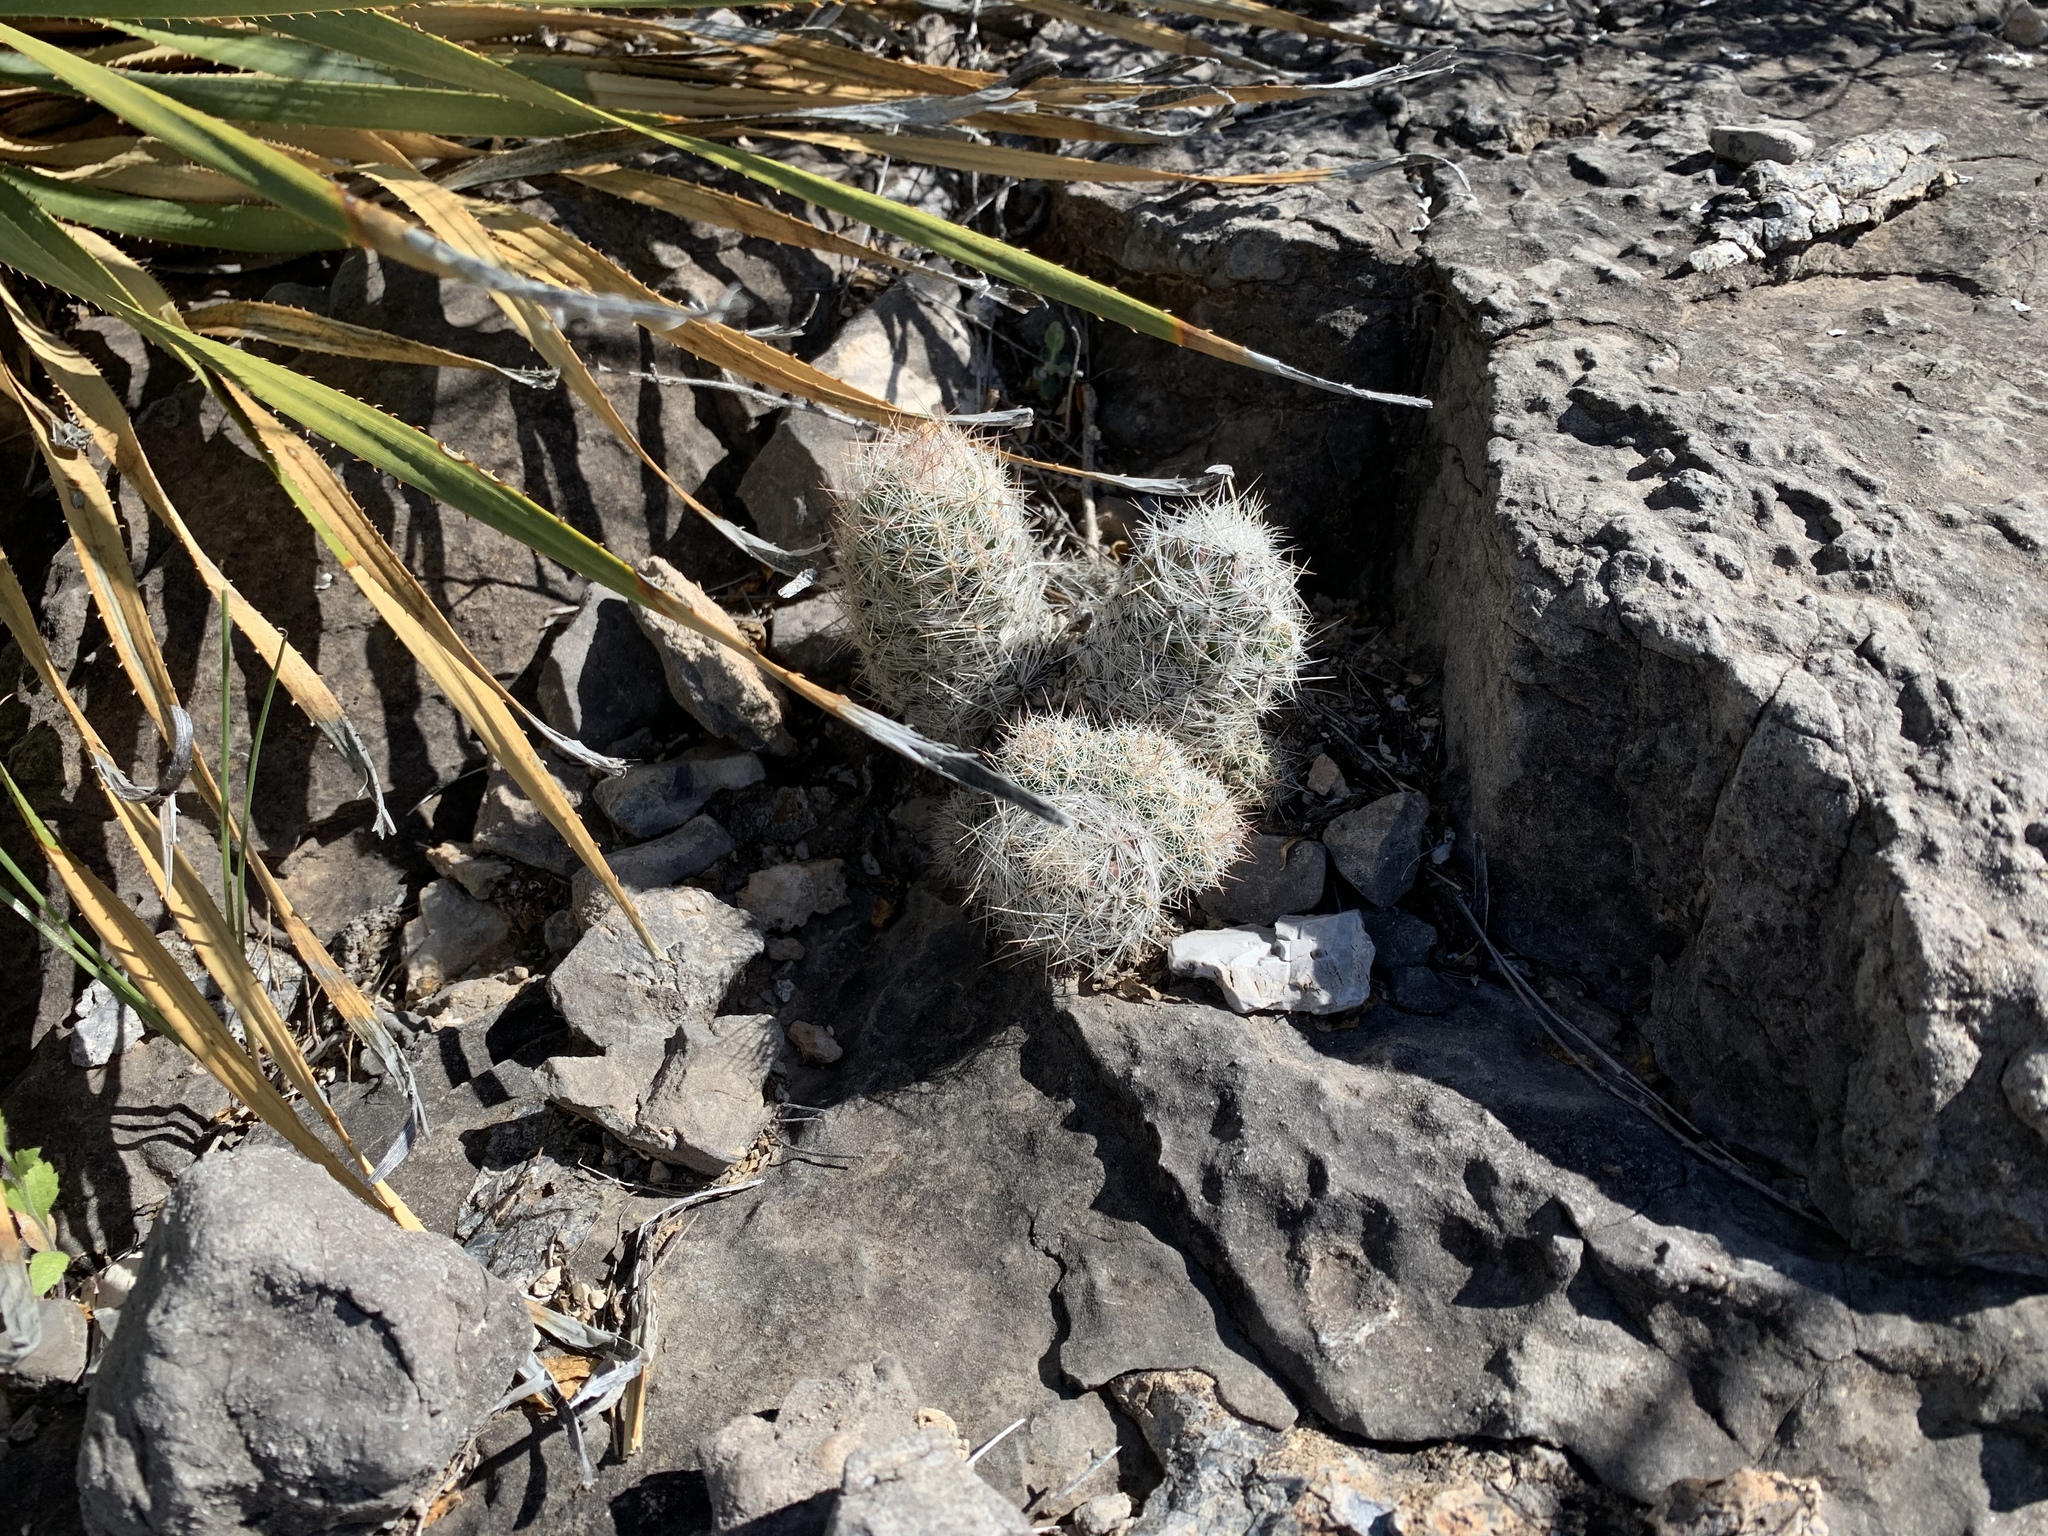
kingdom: Plantae
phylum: Tracheophyta
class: Magnoliopsida
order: Caryophyllales
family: Cactaceae
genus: Pelecyphora
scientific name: Pelecyphora tuberculosa
